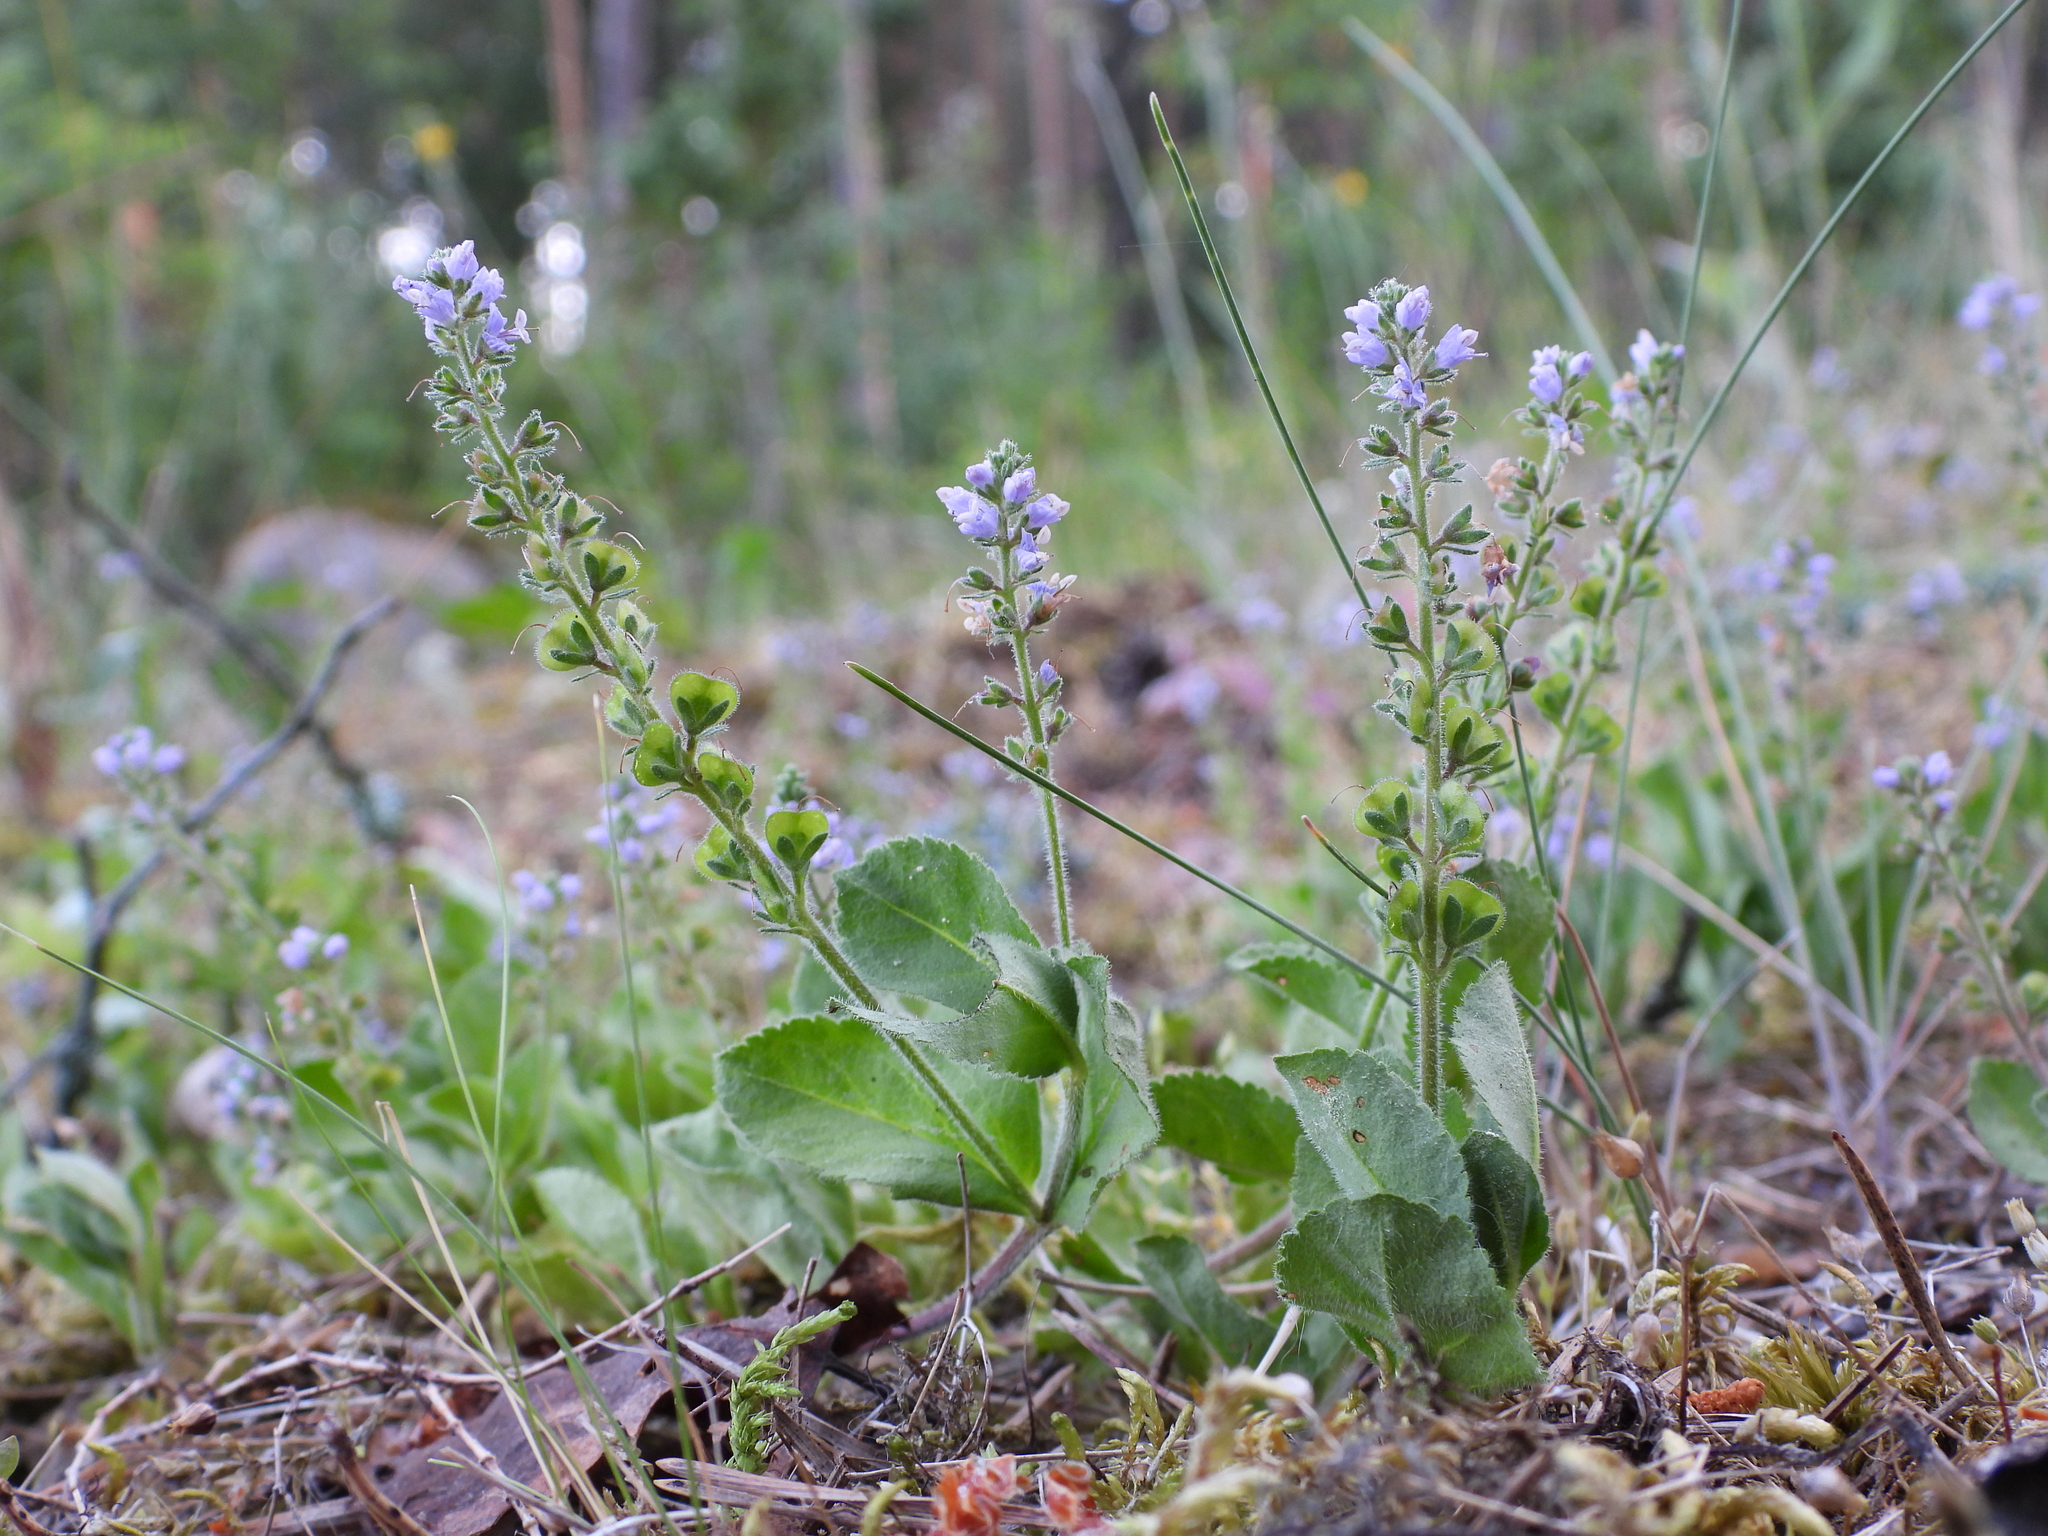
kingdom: Plantae
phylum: Tracheophyta
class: Magnoliopsida
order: Lamiales
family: Plantaginaceae
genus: Veronica
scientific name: Veronica officinalis
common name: Common speedwell
